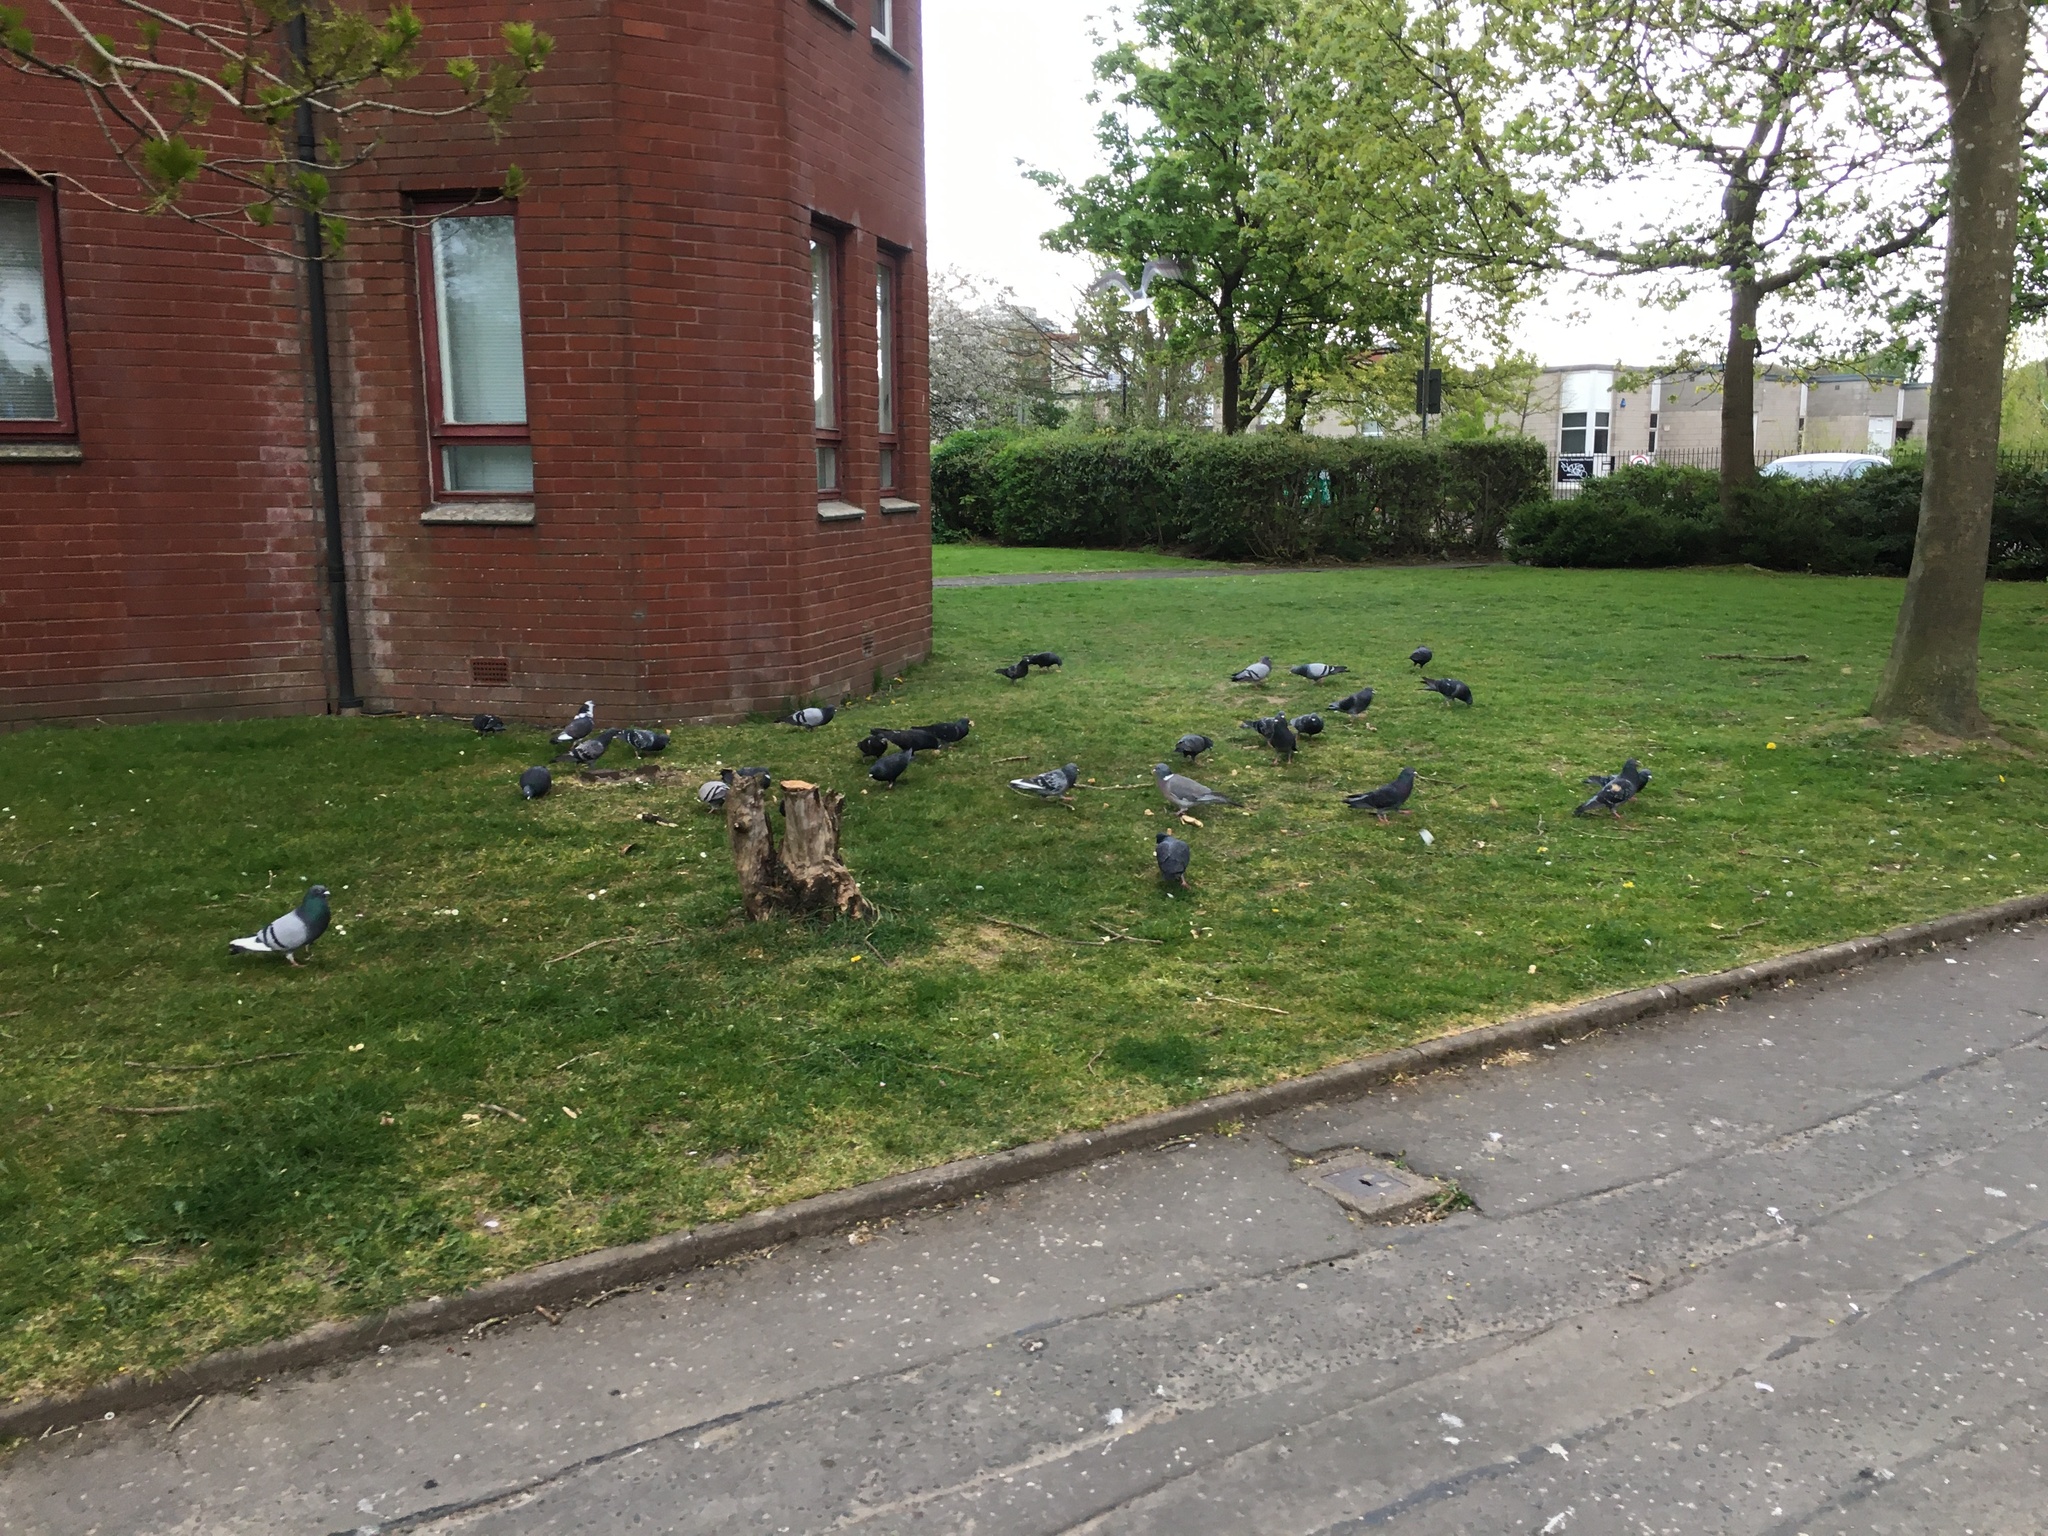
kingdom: Animalia
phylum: Chordata
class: Aves
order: Columbiformes
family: Columbidae
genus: Columba
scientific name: Columba livia
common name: Rock pigeon
